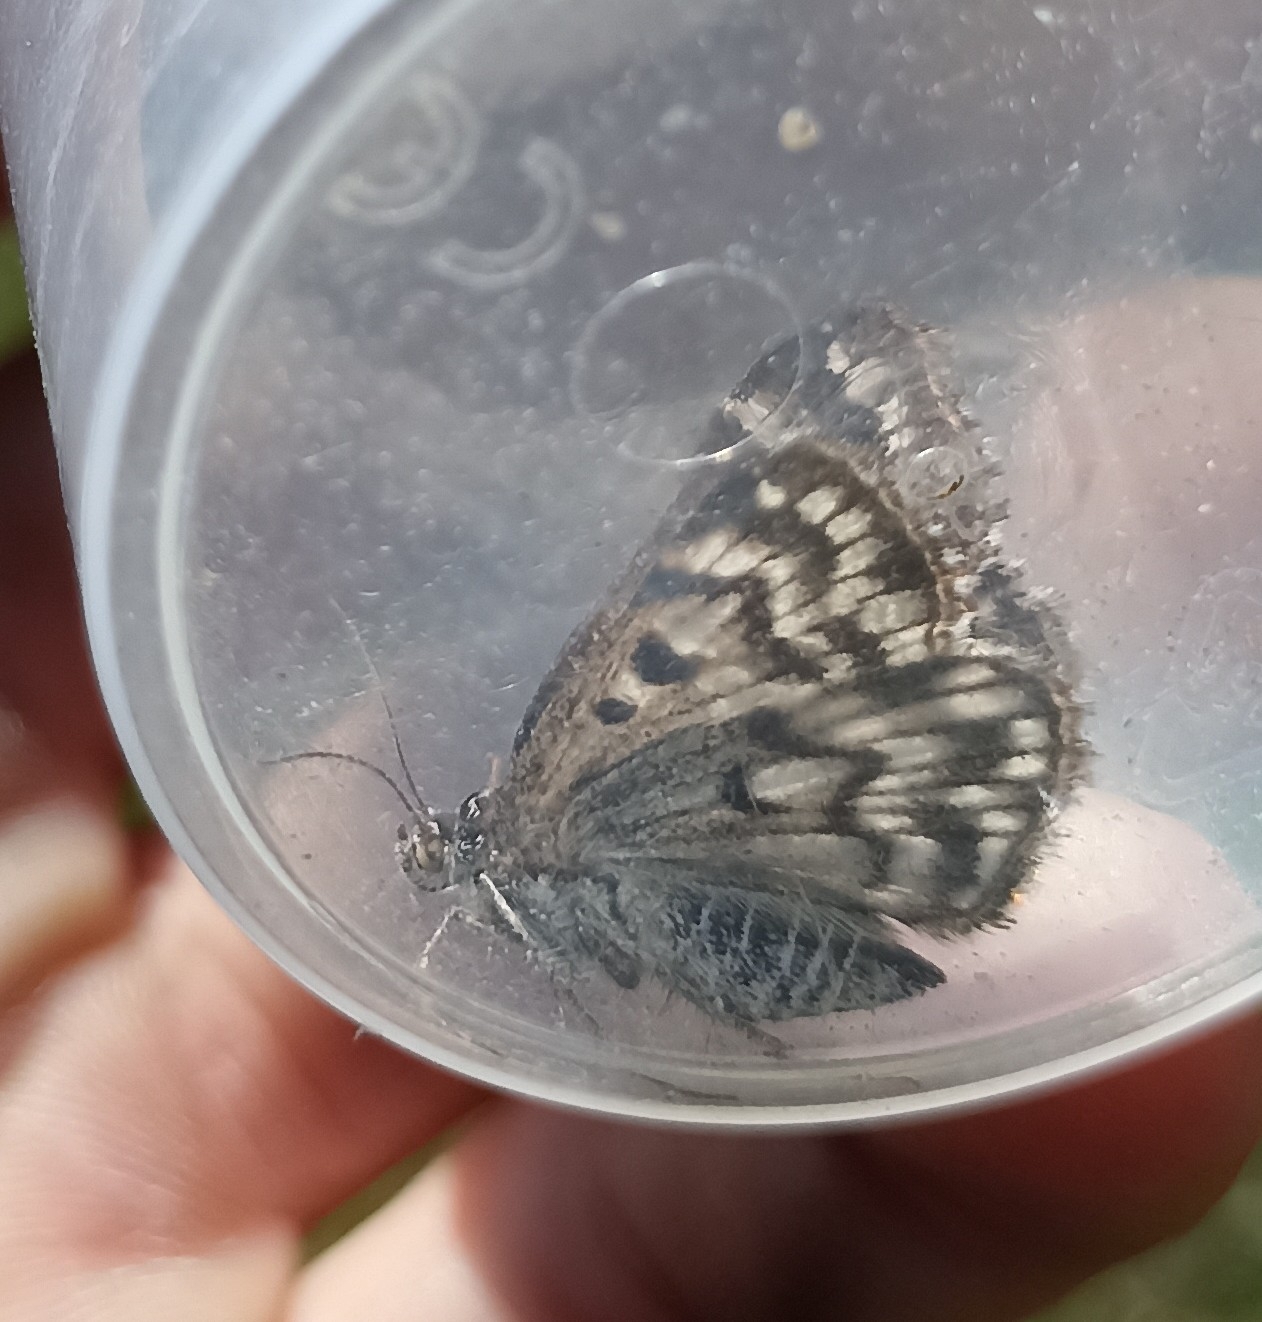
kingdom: Animalia
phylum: Arthropoda
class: Insecta
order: Lepidoptera
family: Erebidae
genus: Callistege
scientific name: Callistege mi
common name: Mother shipton
